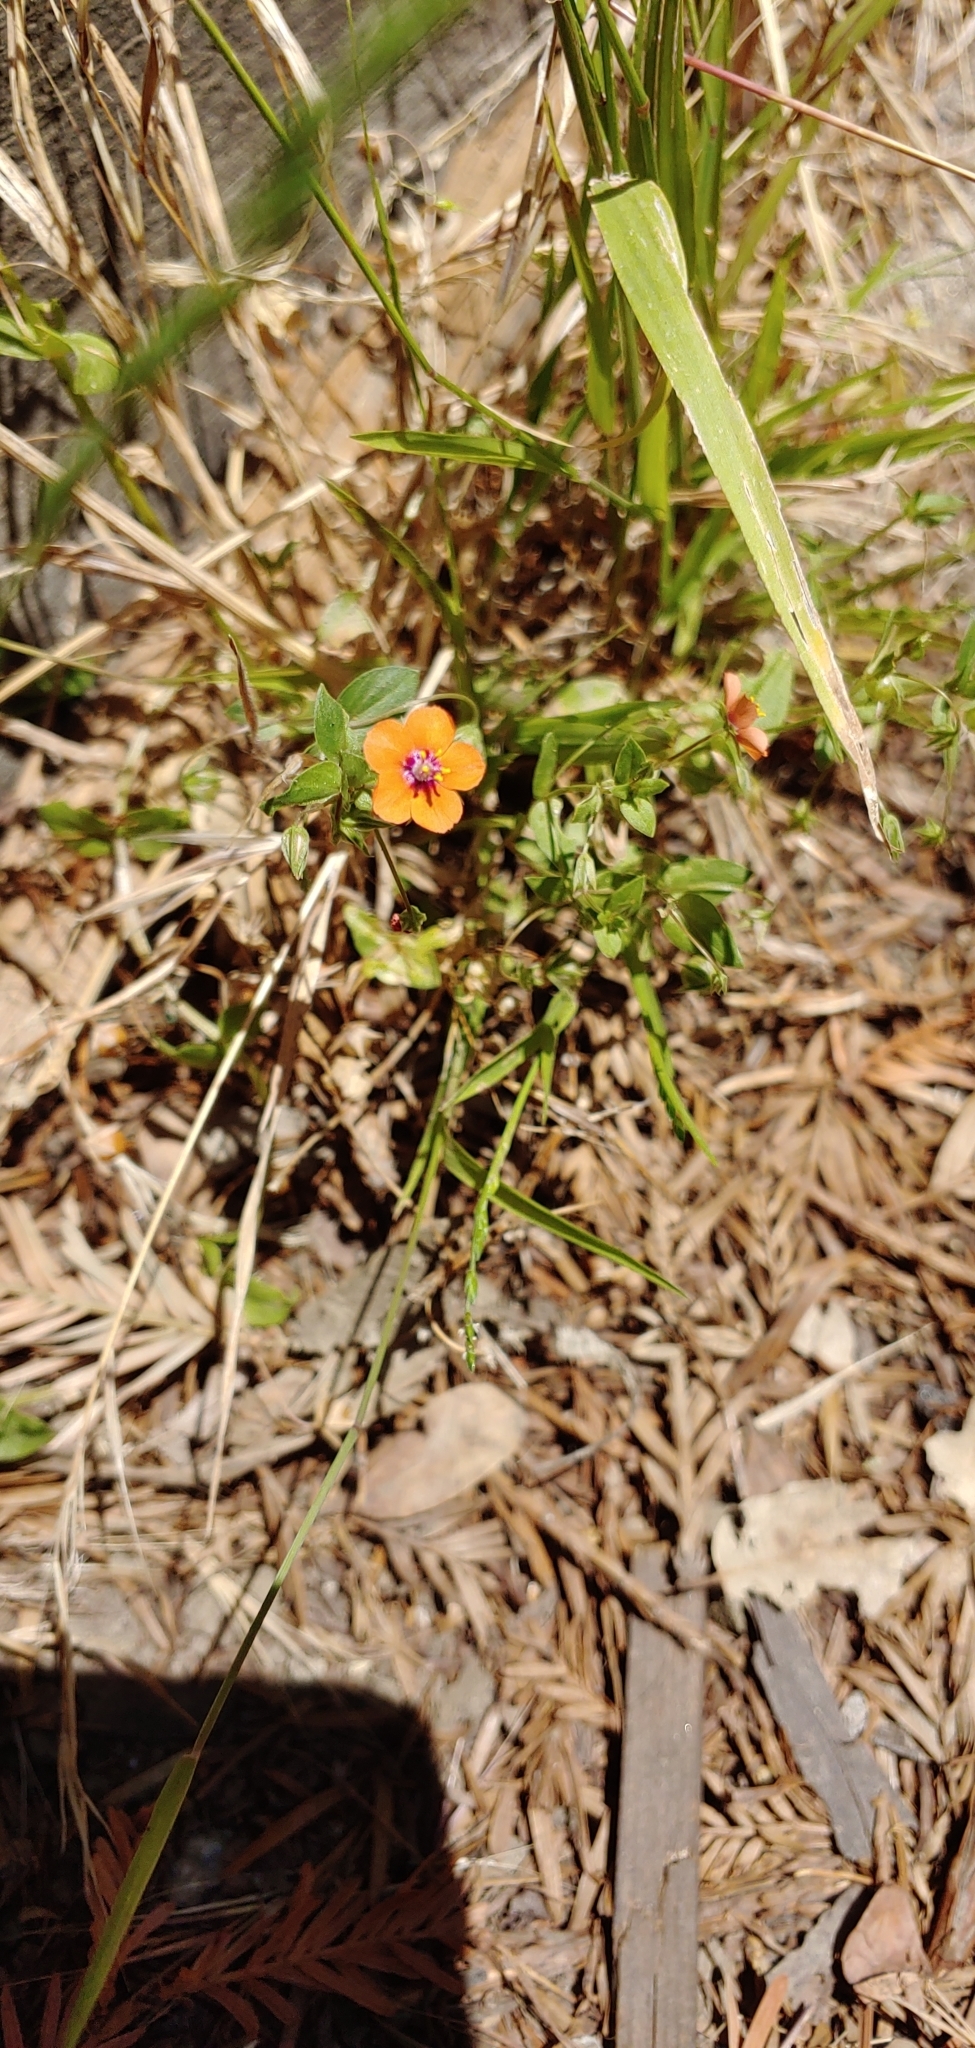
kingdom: Plantae
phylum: Tracheophyta
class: Magnoliopsida
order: Ericales
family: Primulaceae
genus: Lysimachia
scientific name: Lysimachia arvensis
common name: Scarlet pimpernel
